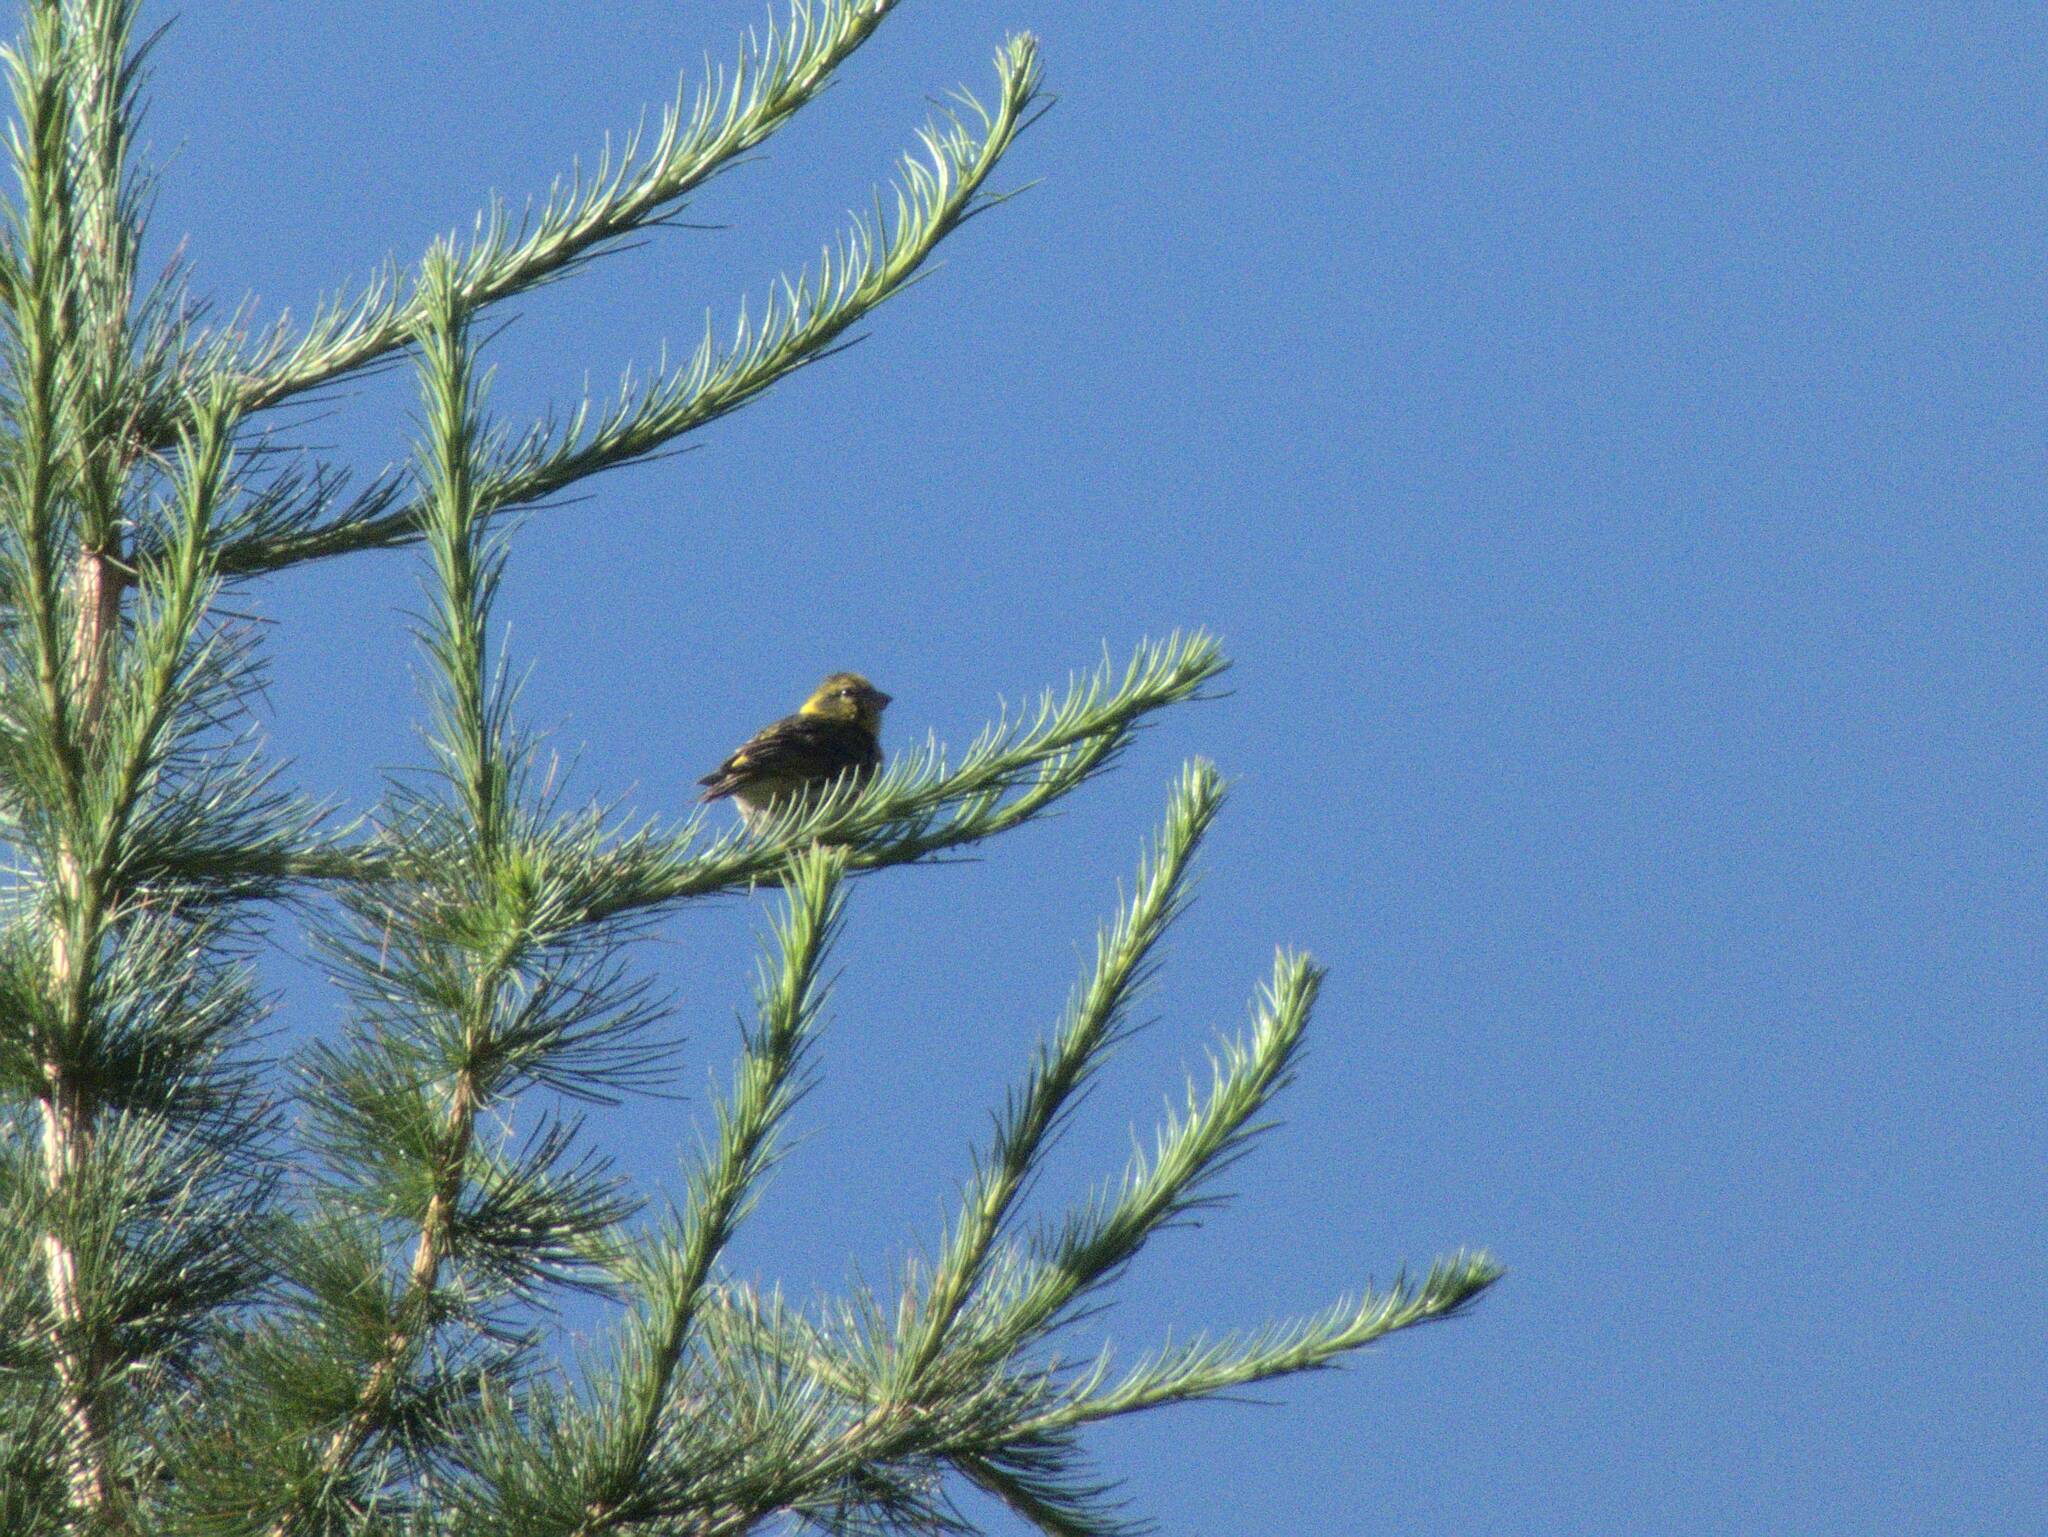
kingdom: Animalia
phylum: Chordata
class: Aves
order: Passeriformes
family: Fringillidae
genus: Serinus
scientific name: Serinus serinus
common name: European serin
